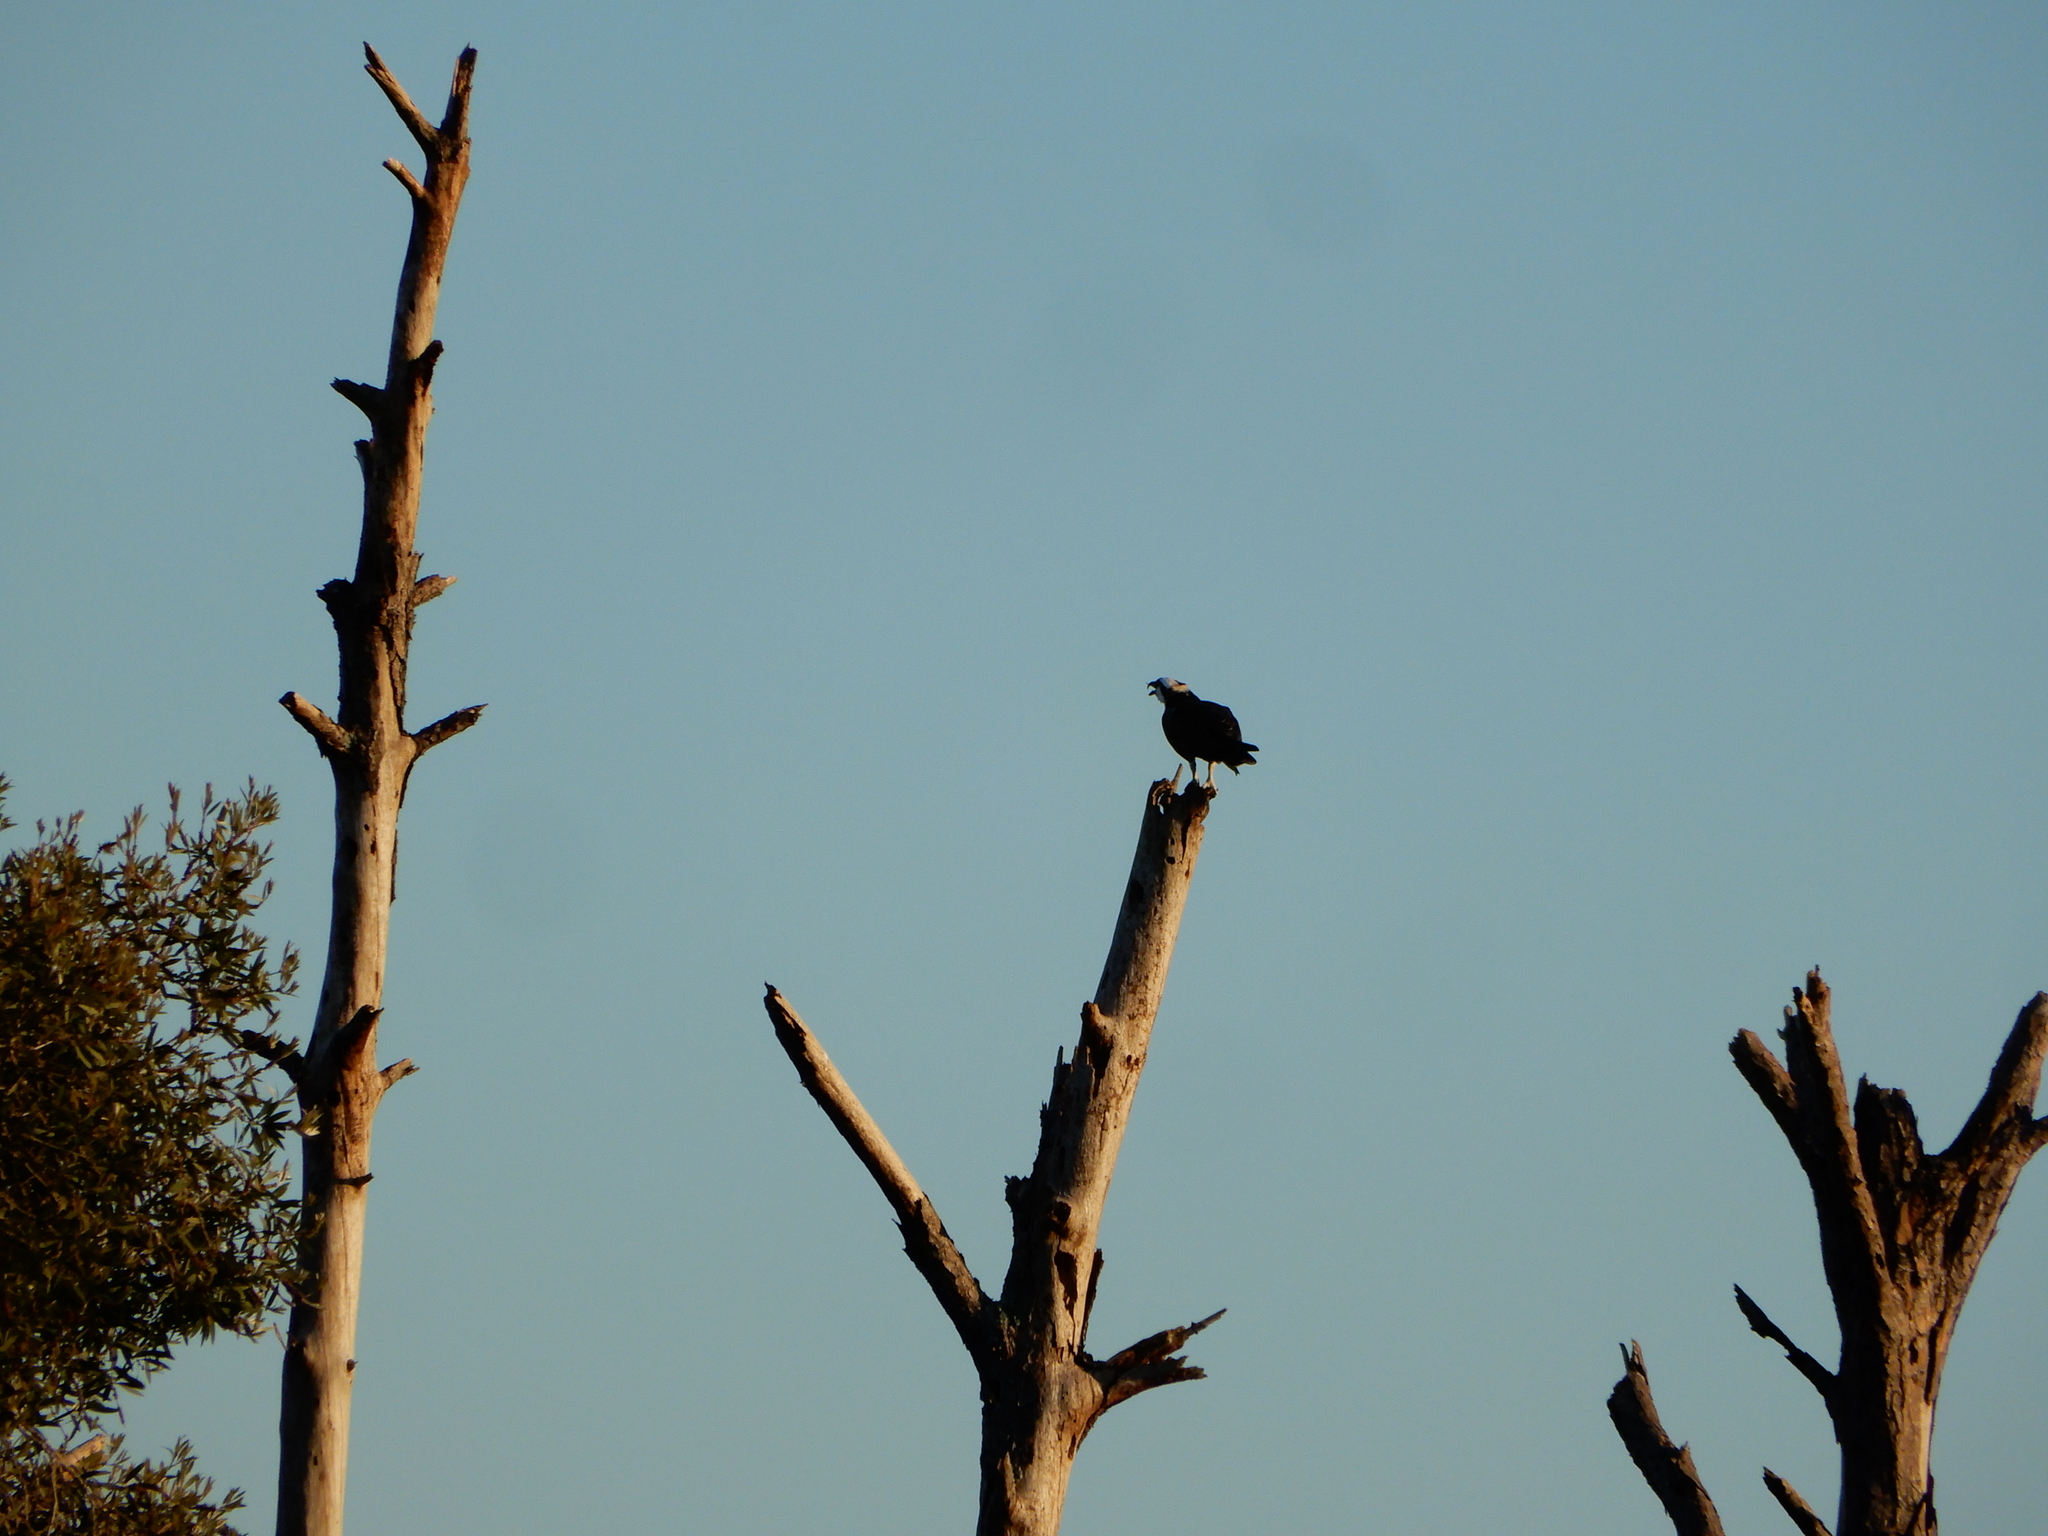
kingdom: Animalia
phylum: Chordata
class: Aves
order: Accipitriformes
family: Pandionidae
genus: Pandion
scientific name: Pandion haliaetus
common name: Osprey
